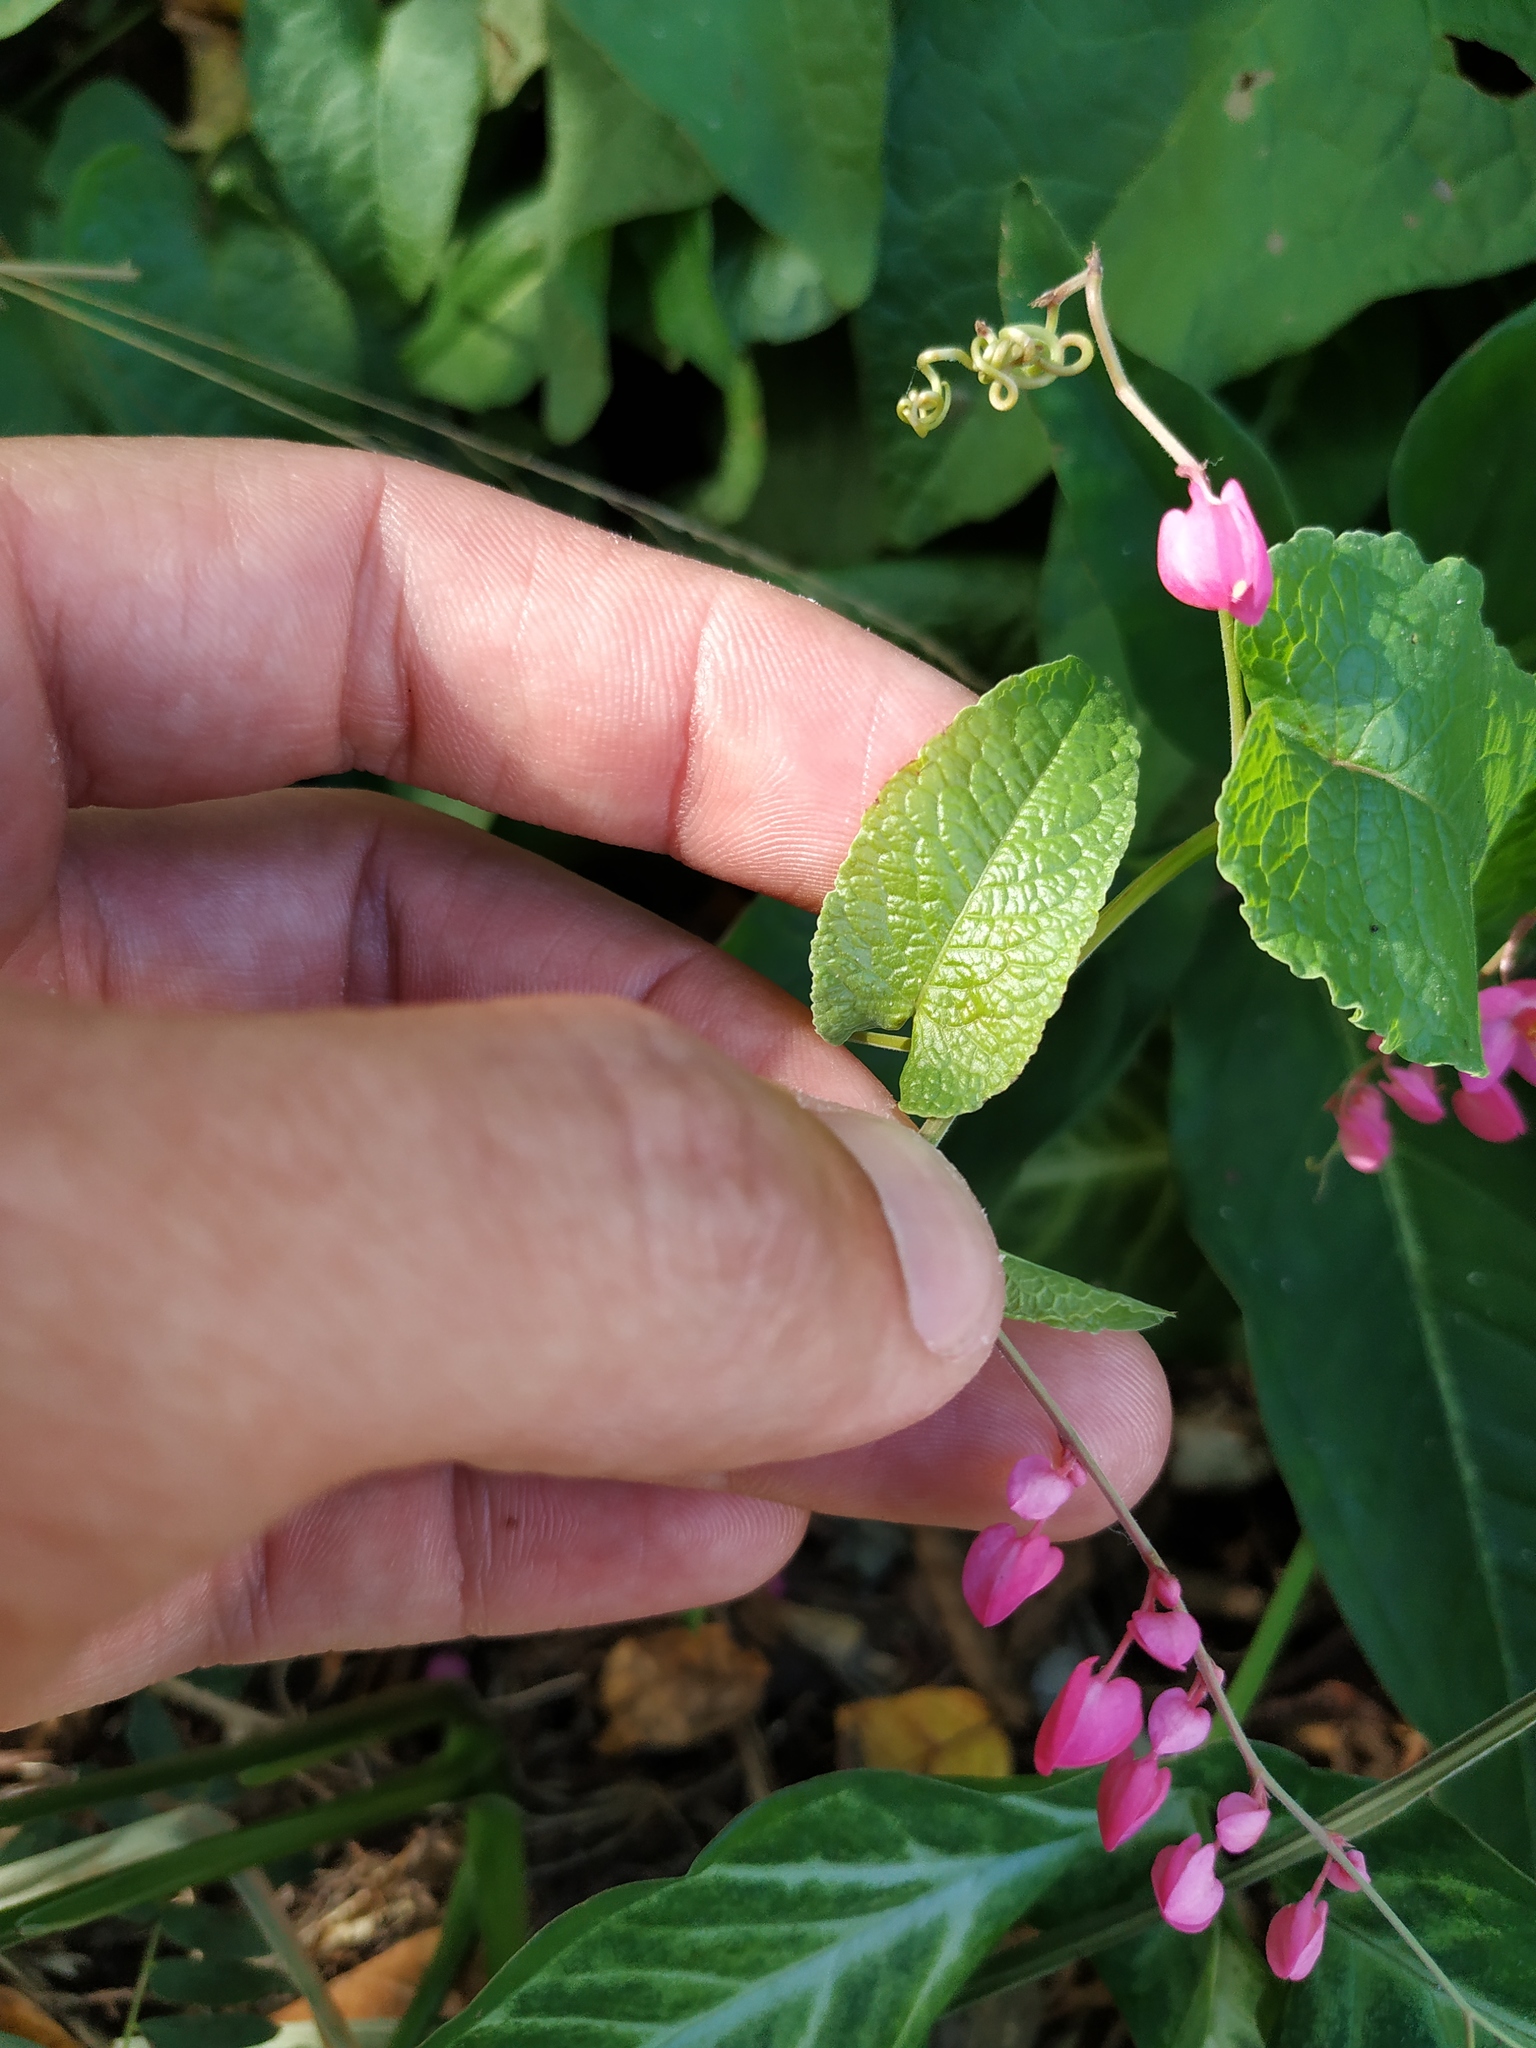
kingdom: Plantae
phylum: Tracheophyta
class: Magnoliopsida
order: Caryophyllales
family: Polygonaceae
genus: Antigonon
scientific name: Antigonon leptopus
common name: Coral vine
